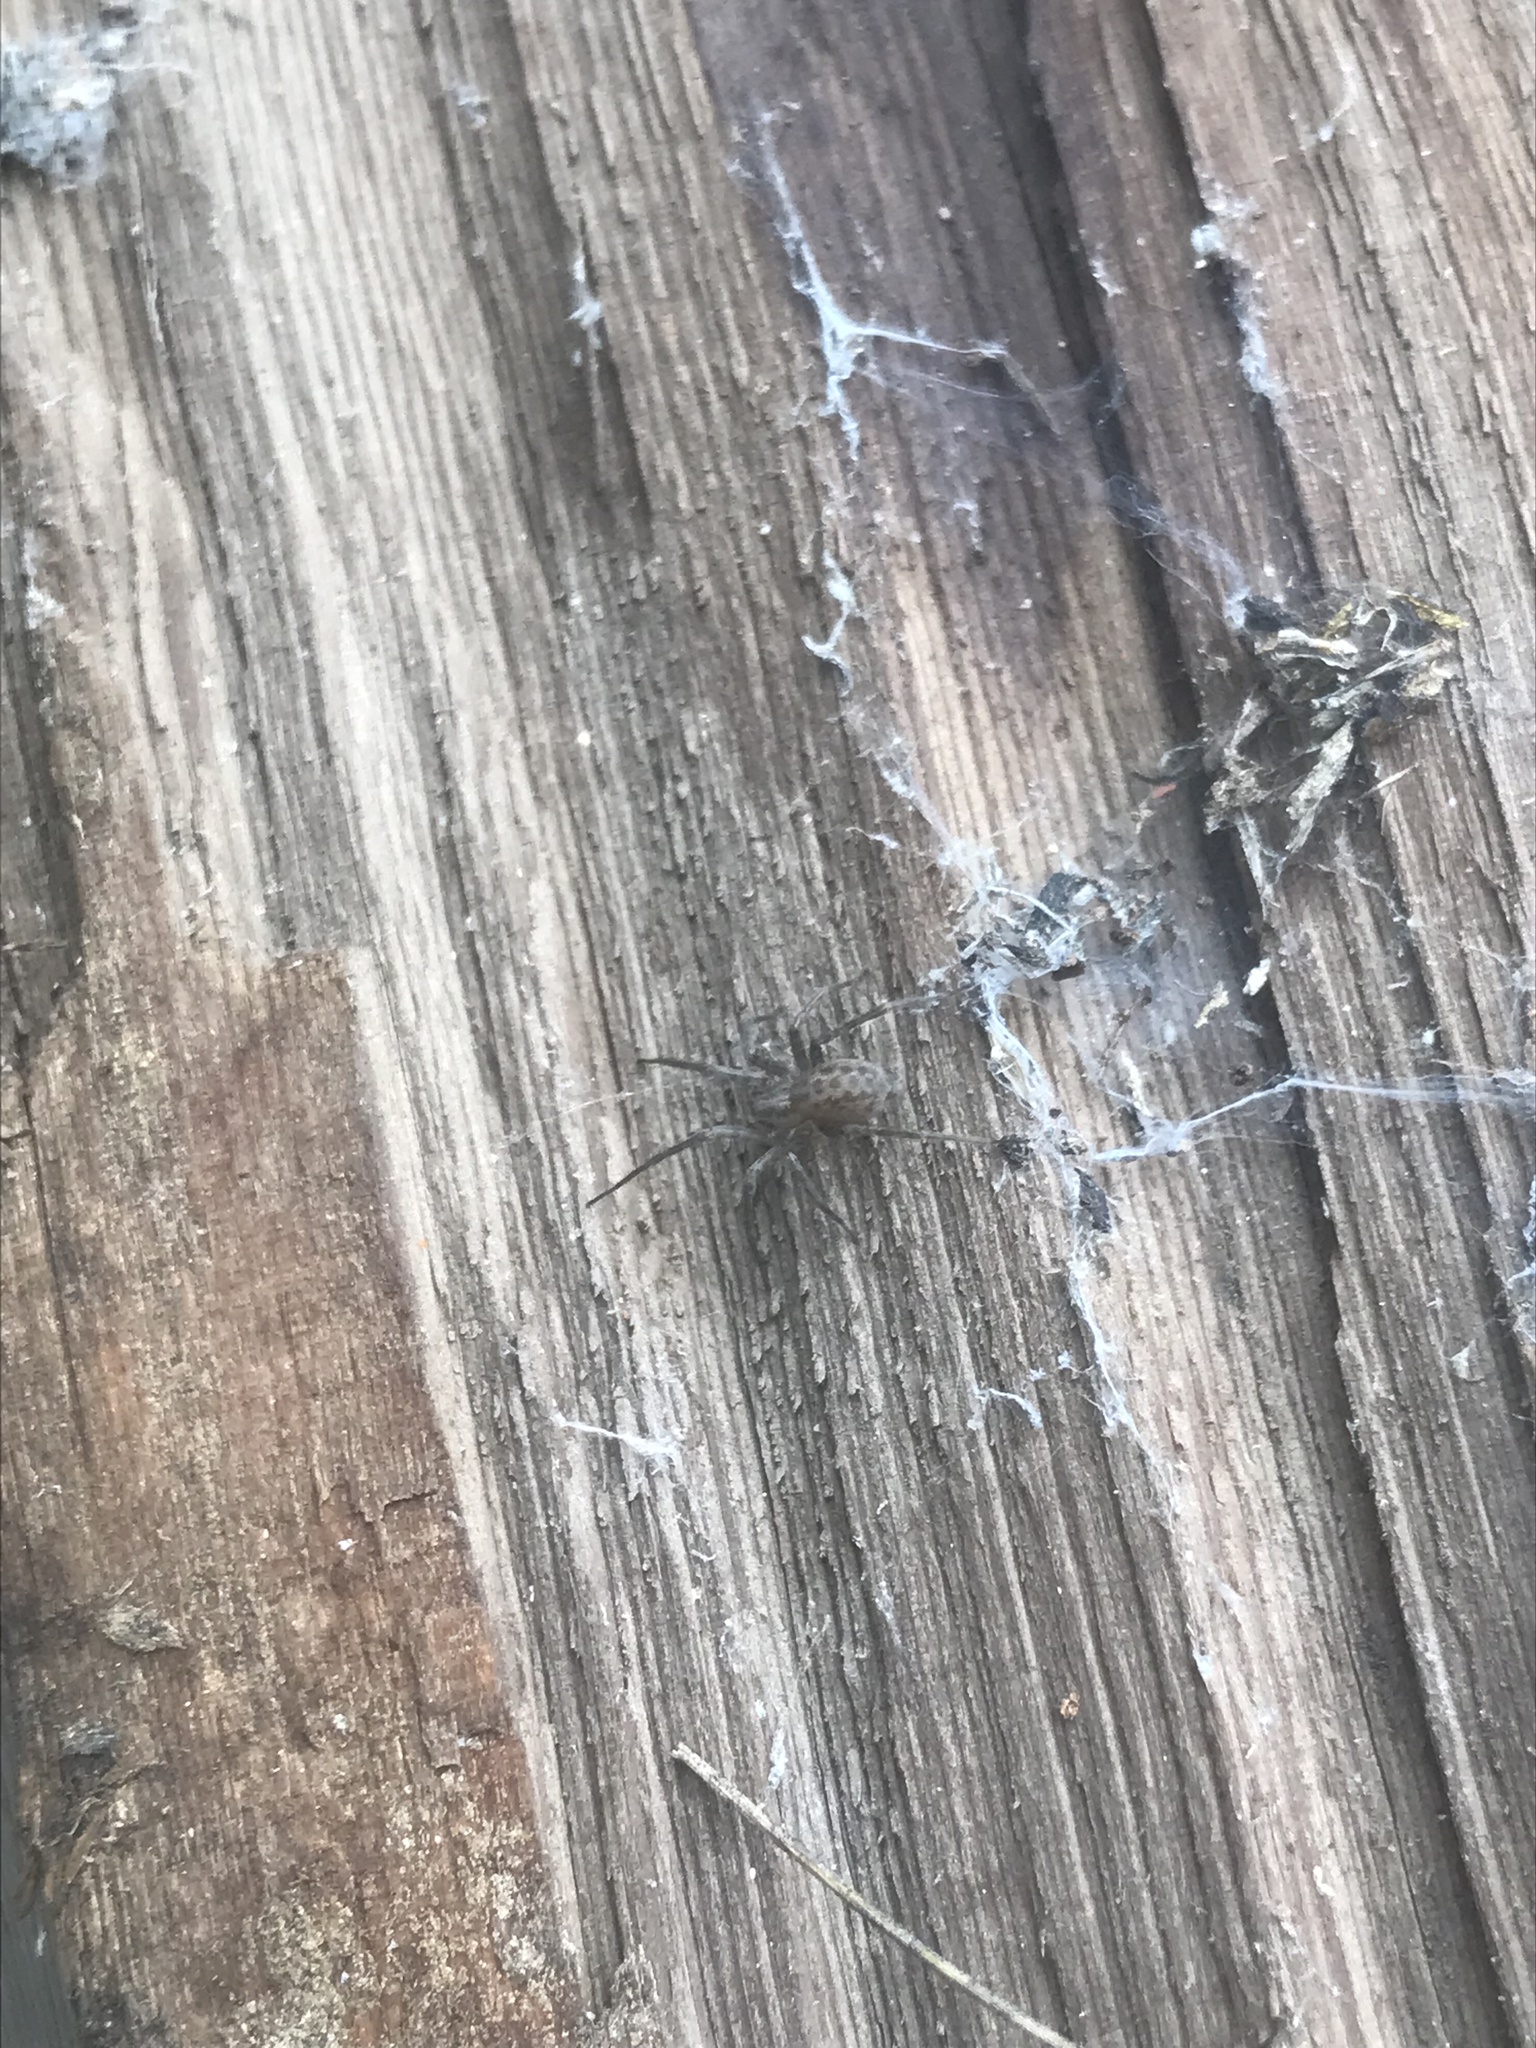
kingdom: Animalia
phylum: Arthropoda
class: Arachnida
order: Araneae
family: Agelenidae
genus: Tegenaria
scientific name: Tegenaria domestica
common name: Barn funnel weaver
